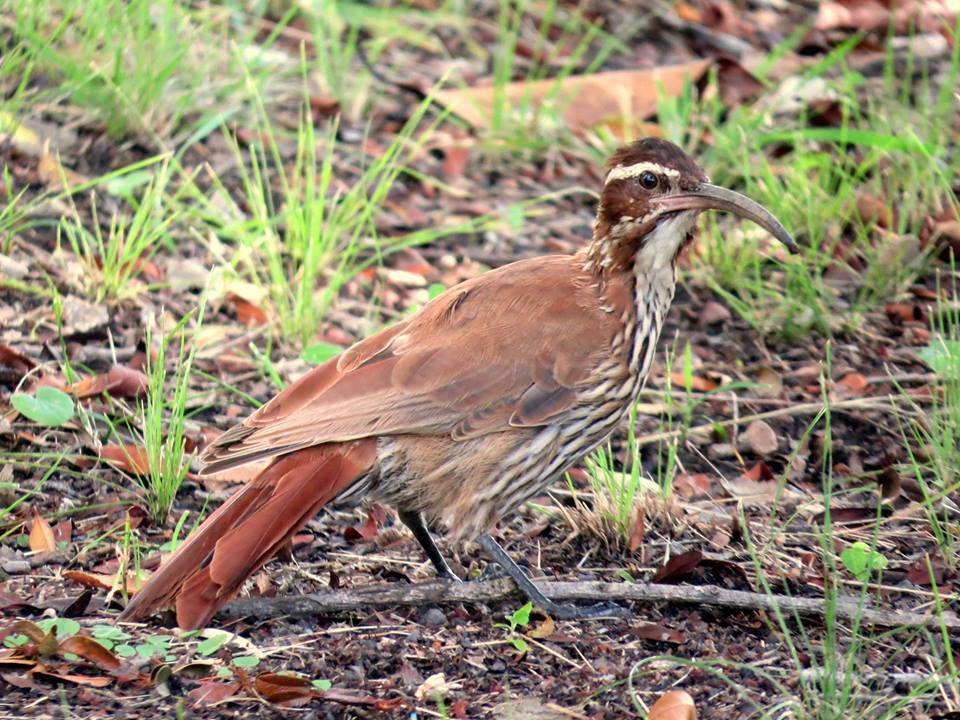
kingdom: Animalia
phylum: Chordata
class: Aves
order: Passeriformes
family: Furnariidae
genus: Drymornis
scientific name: Drymornis bridgesii
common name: Scimitar-billed woodcreeper
